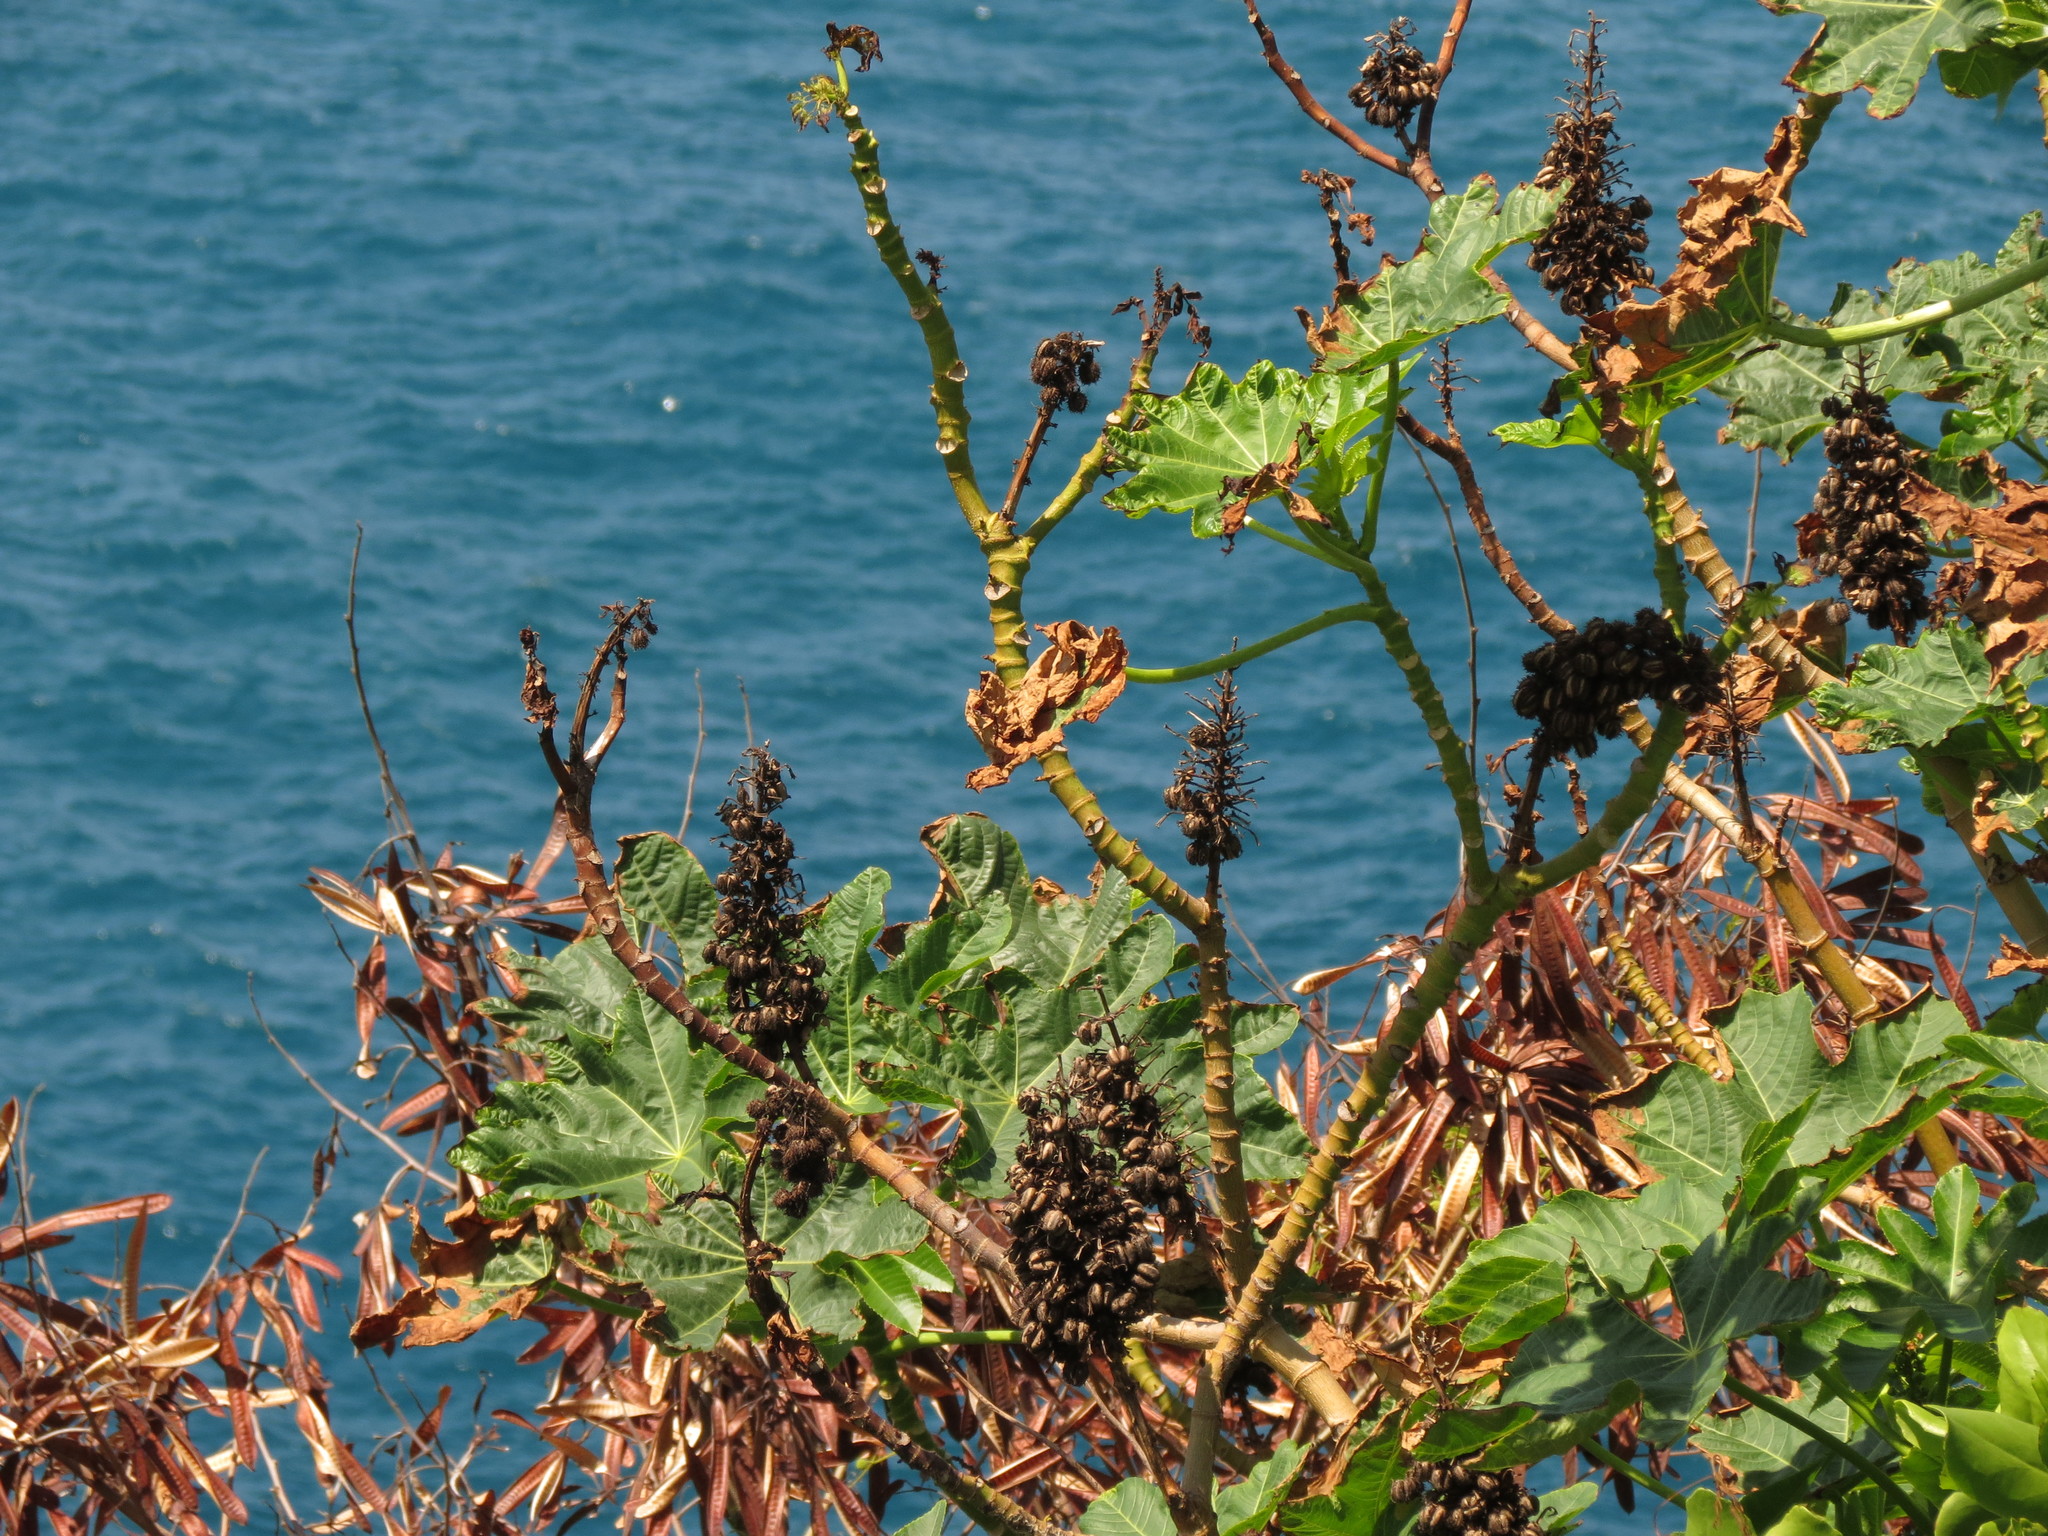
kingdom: Plantae
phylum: Tracheophyta
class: Magnoliopsida
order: Malpighiales
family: Euphorbiaceae
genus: Ricinus
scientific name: Ricinus communis
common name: Castor-oil-plant
